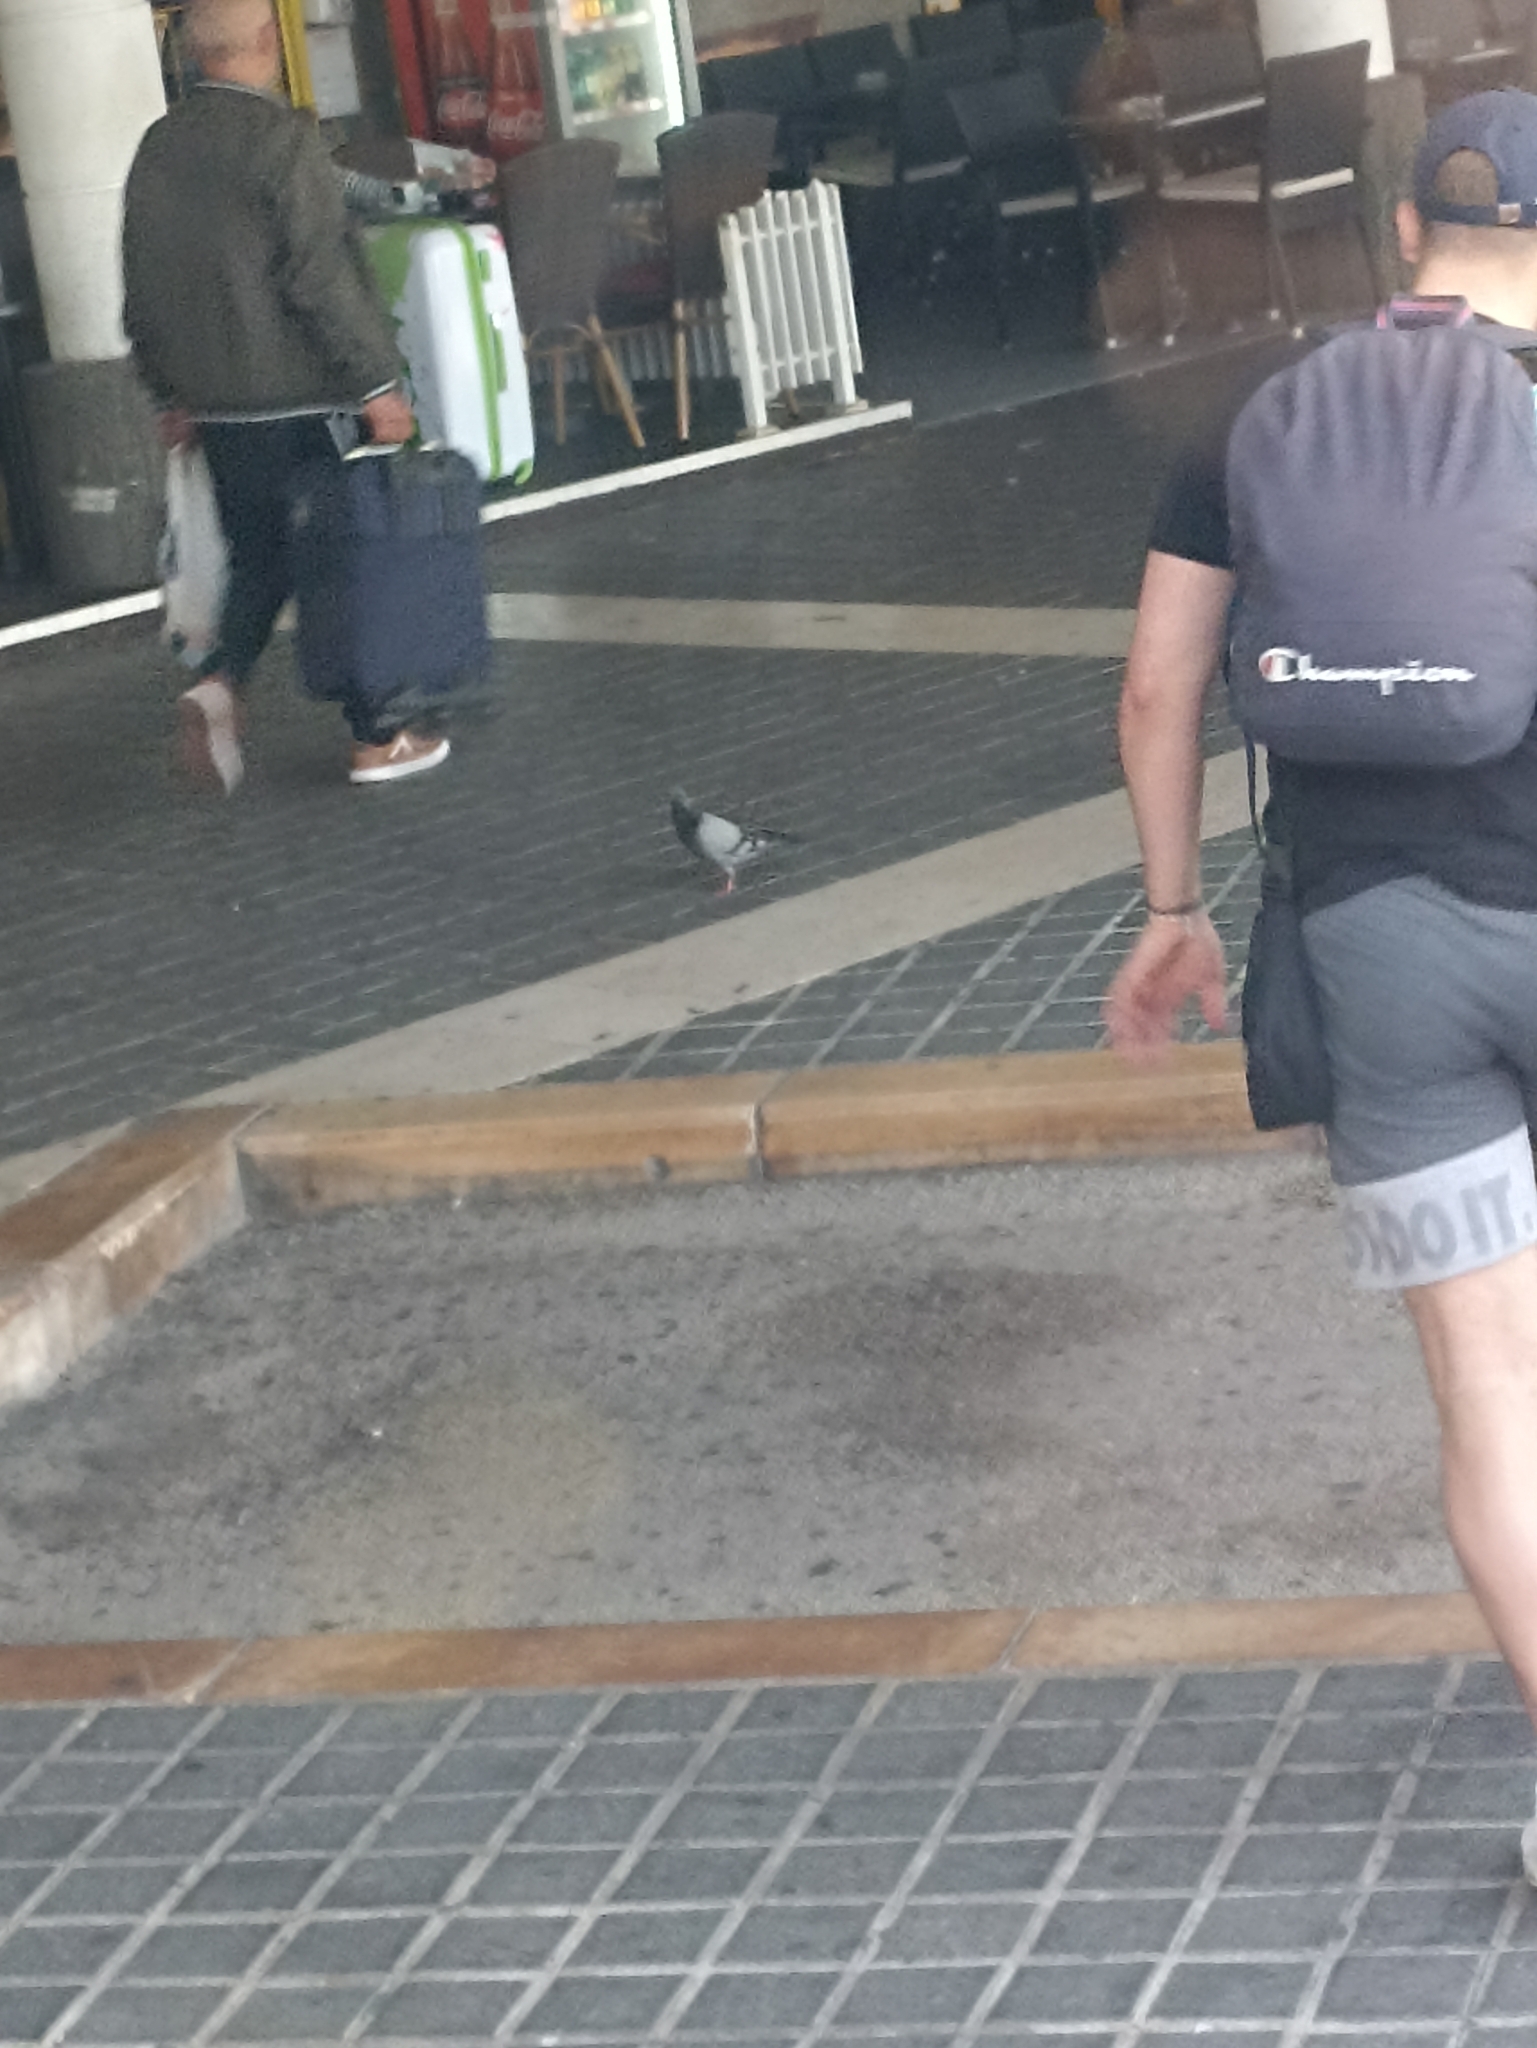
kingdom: Animalia
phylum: Chordata
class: Aves
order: Columbiformes
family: Columbidae
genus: Columba
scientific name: Columba livia
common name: Rock pigeon
